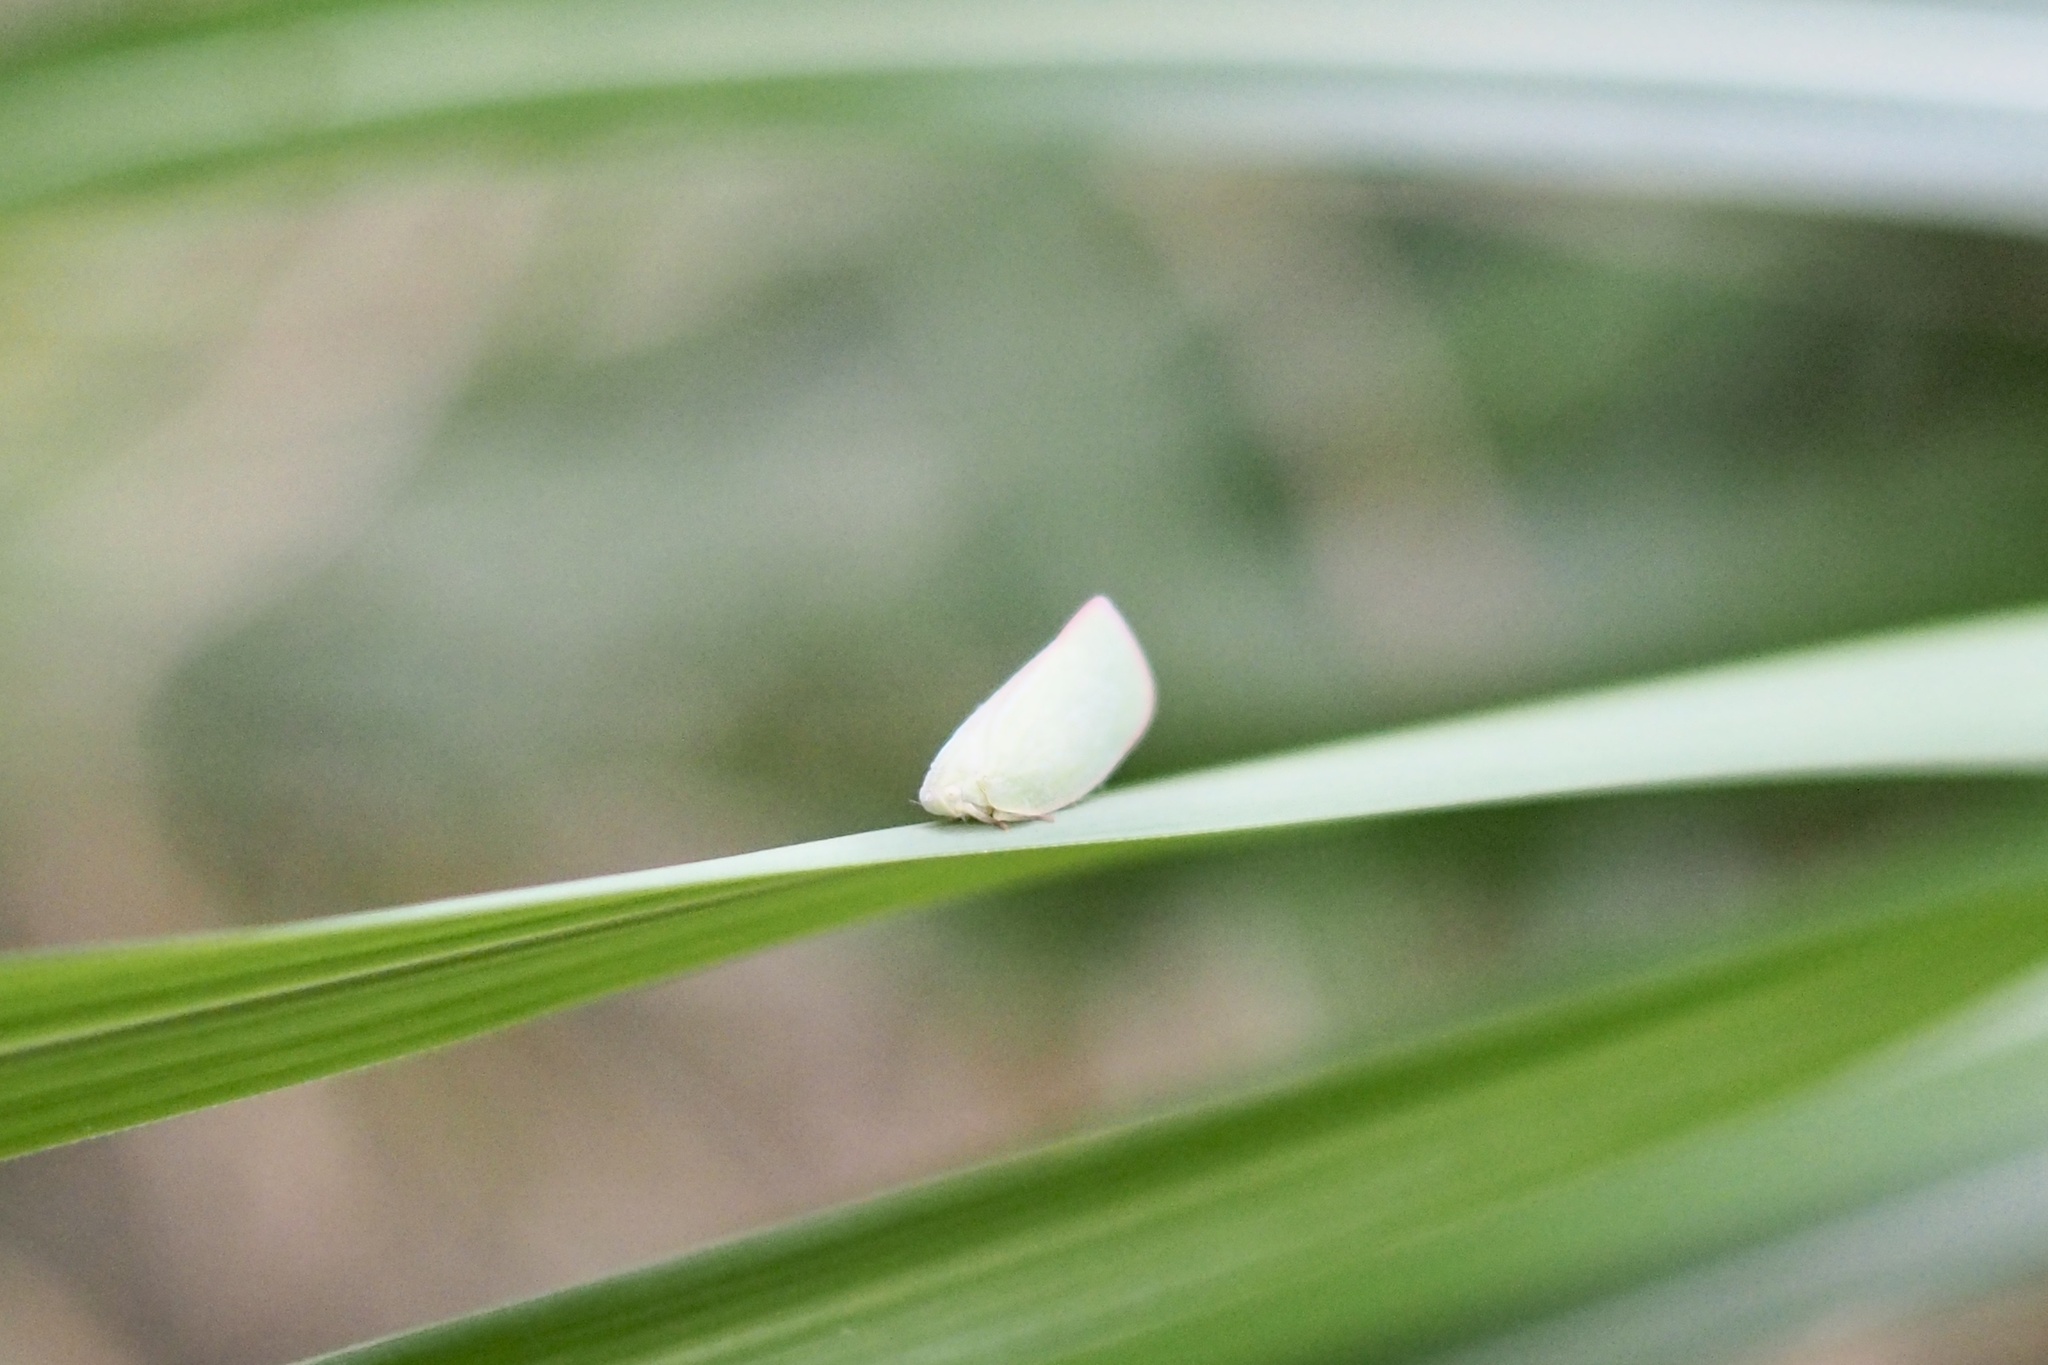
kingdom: Animalia
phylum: Arthropoda
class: Insecta
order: Hemiptera
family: Flatidae
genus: Geisha
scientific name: Geisha distinctissima
